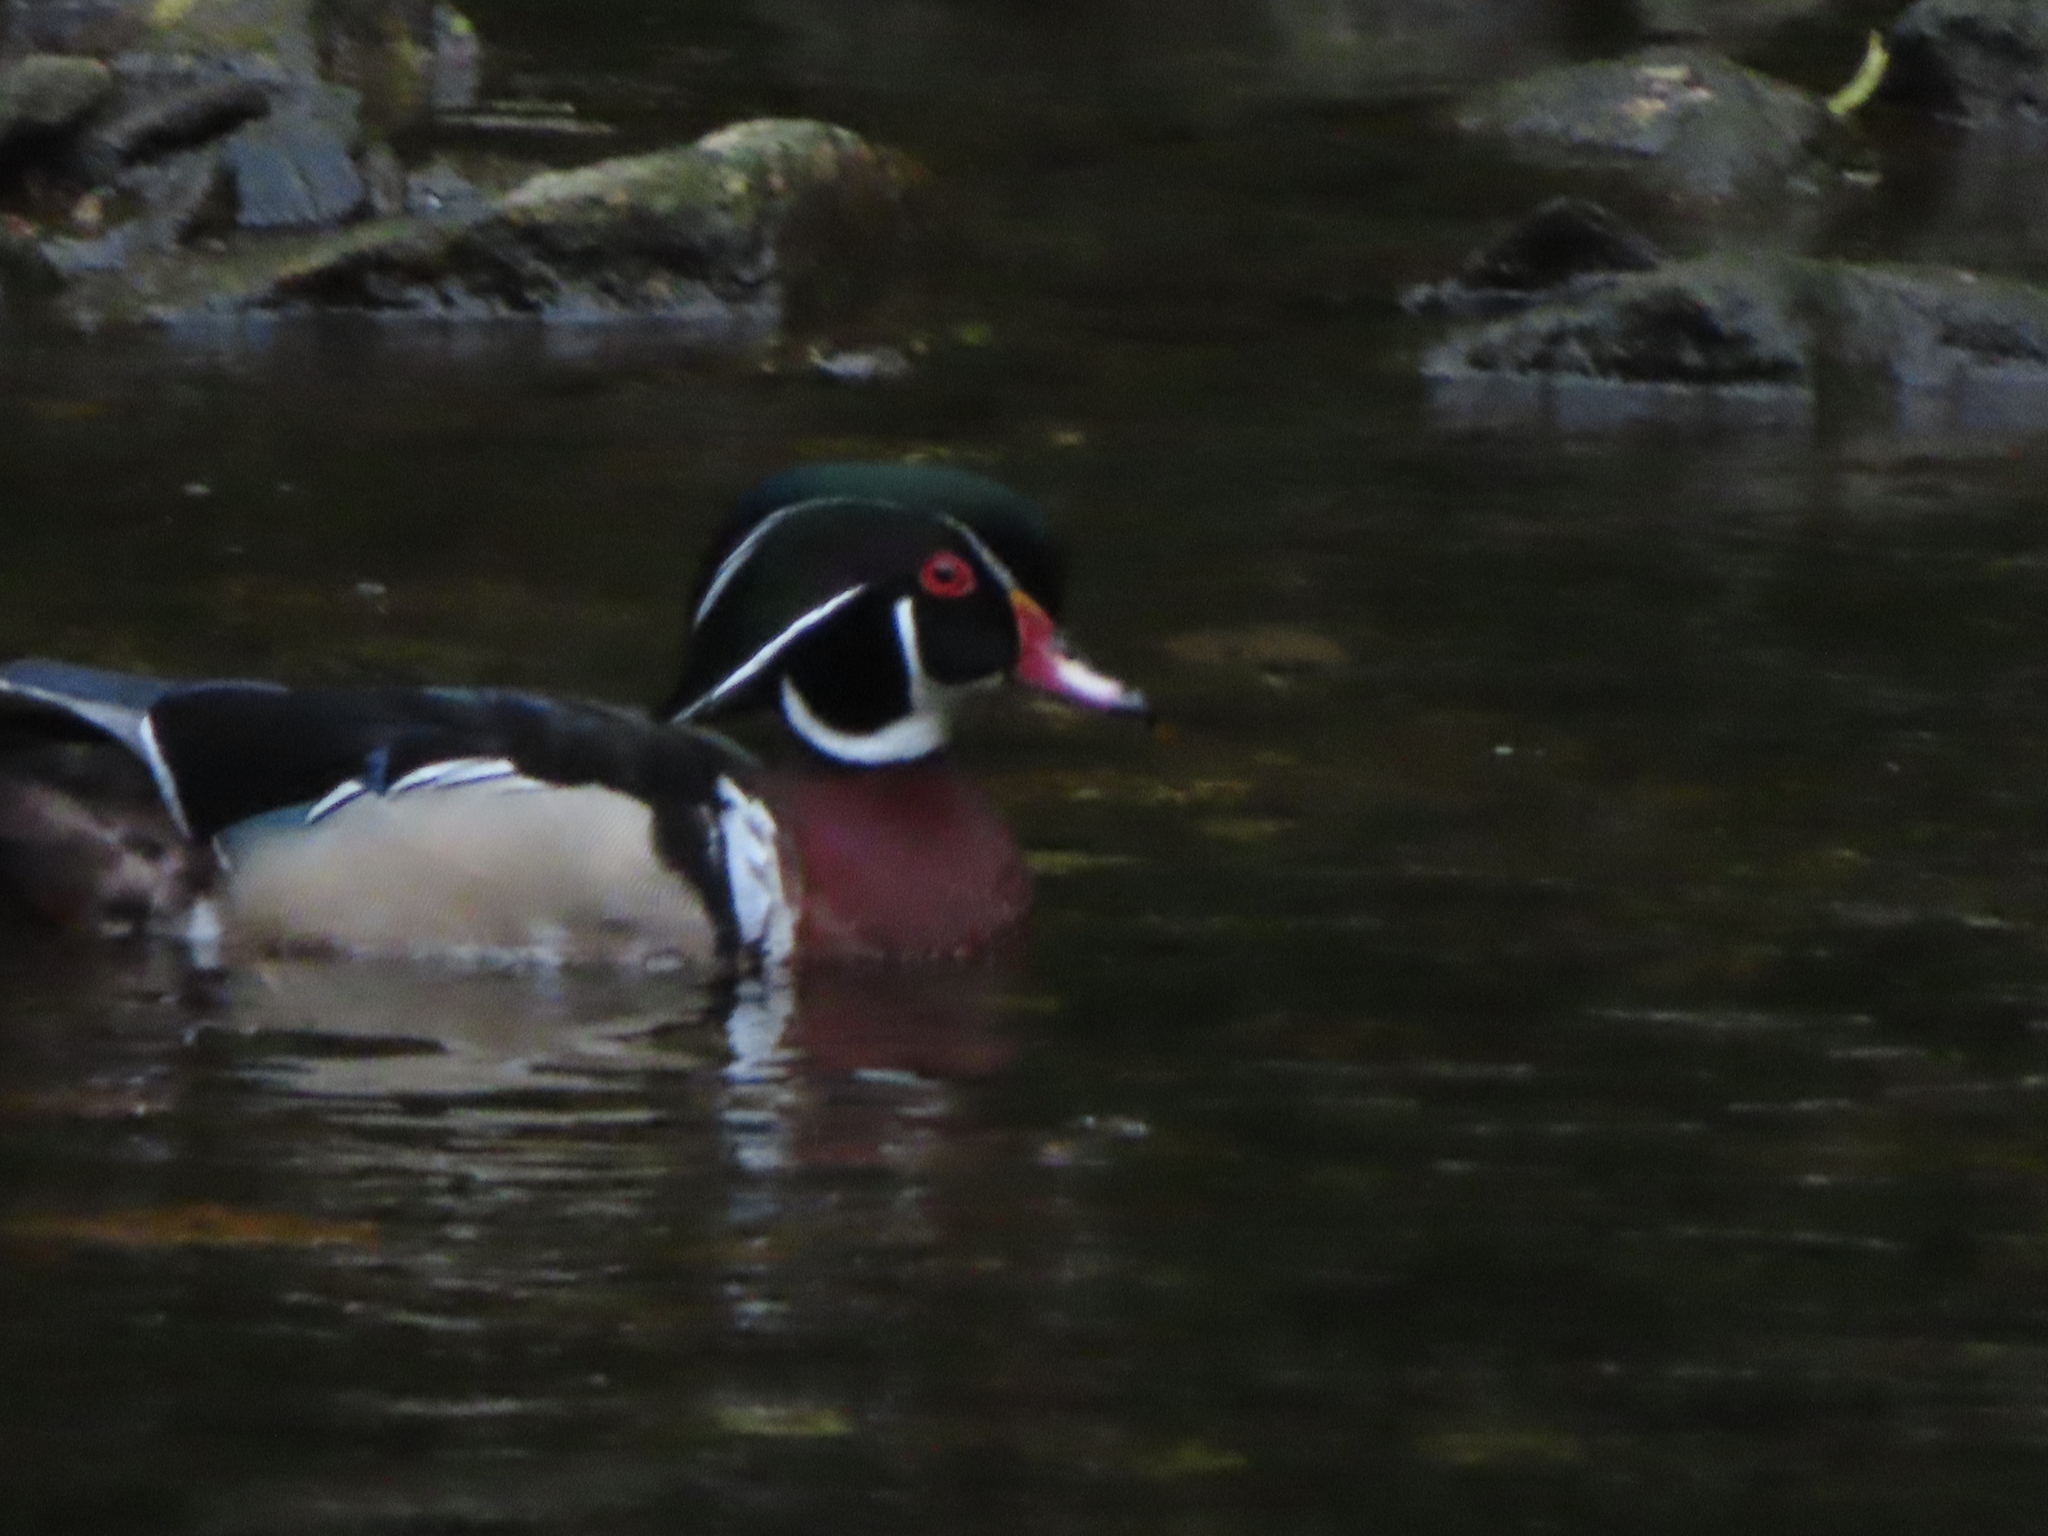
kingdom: Animalia
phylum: Chordata
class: Aves
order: Anseriformes
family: Anatidae
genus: Aix
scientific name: Aix sponsa
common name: Wood duck
